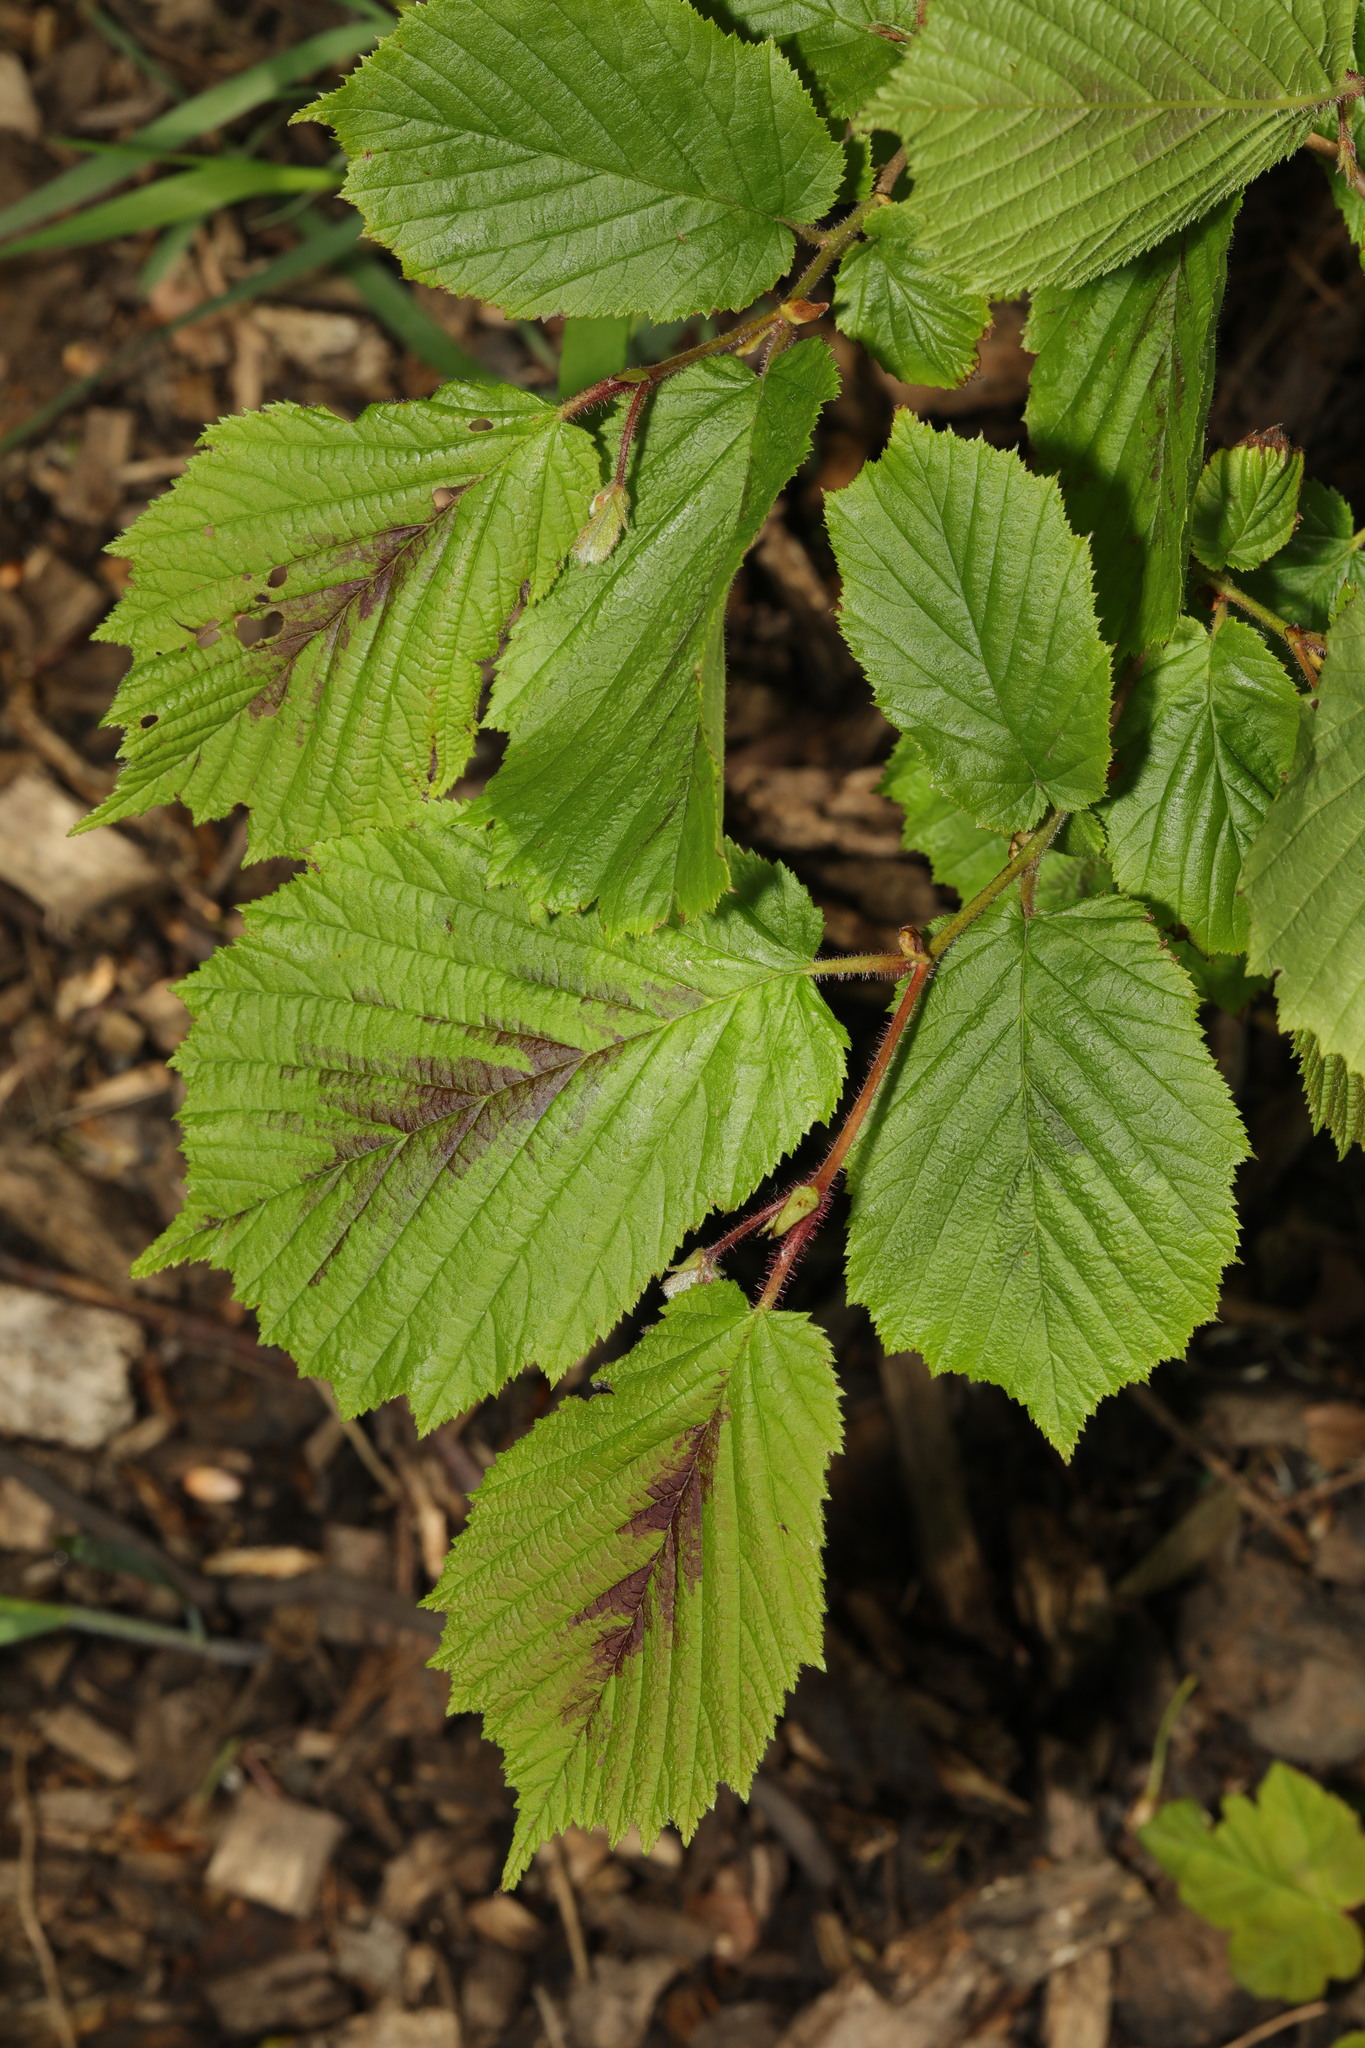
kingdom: Plantae
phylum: Tracheophyta
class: Magnoliopsida
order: Fagales
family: Betulaceae
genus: Corylus
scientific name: Corylus avellana
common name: European hazel
